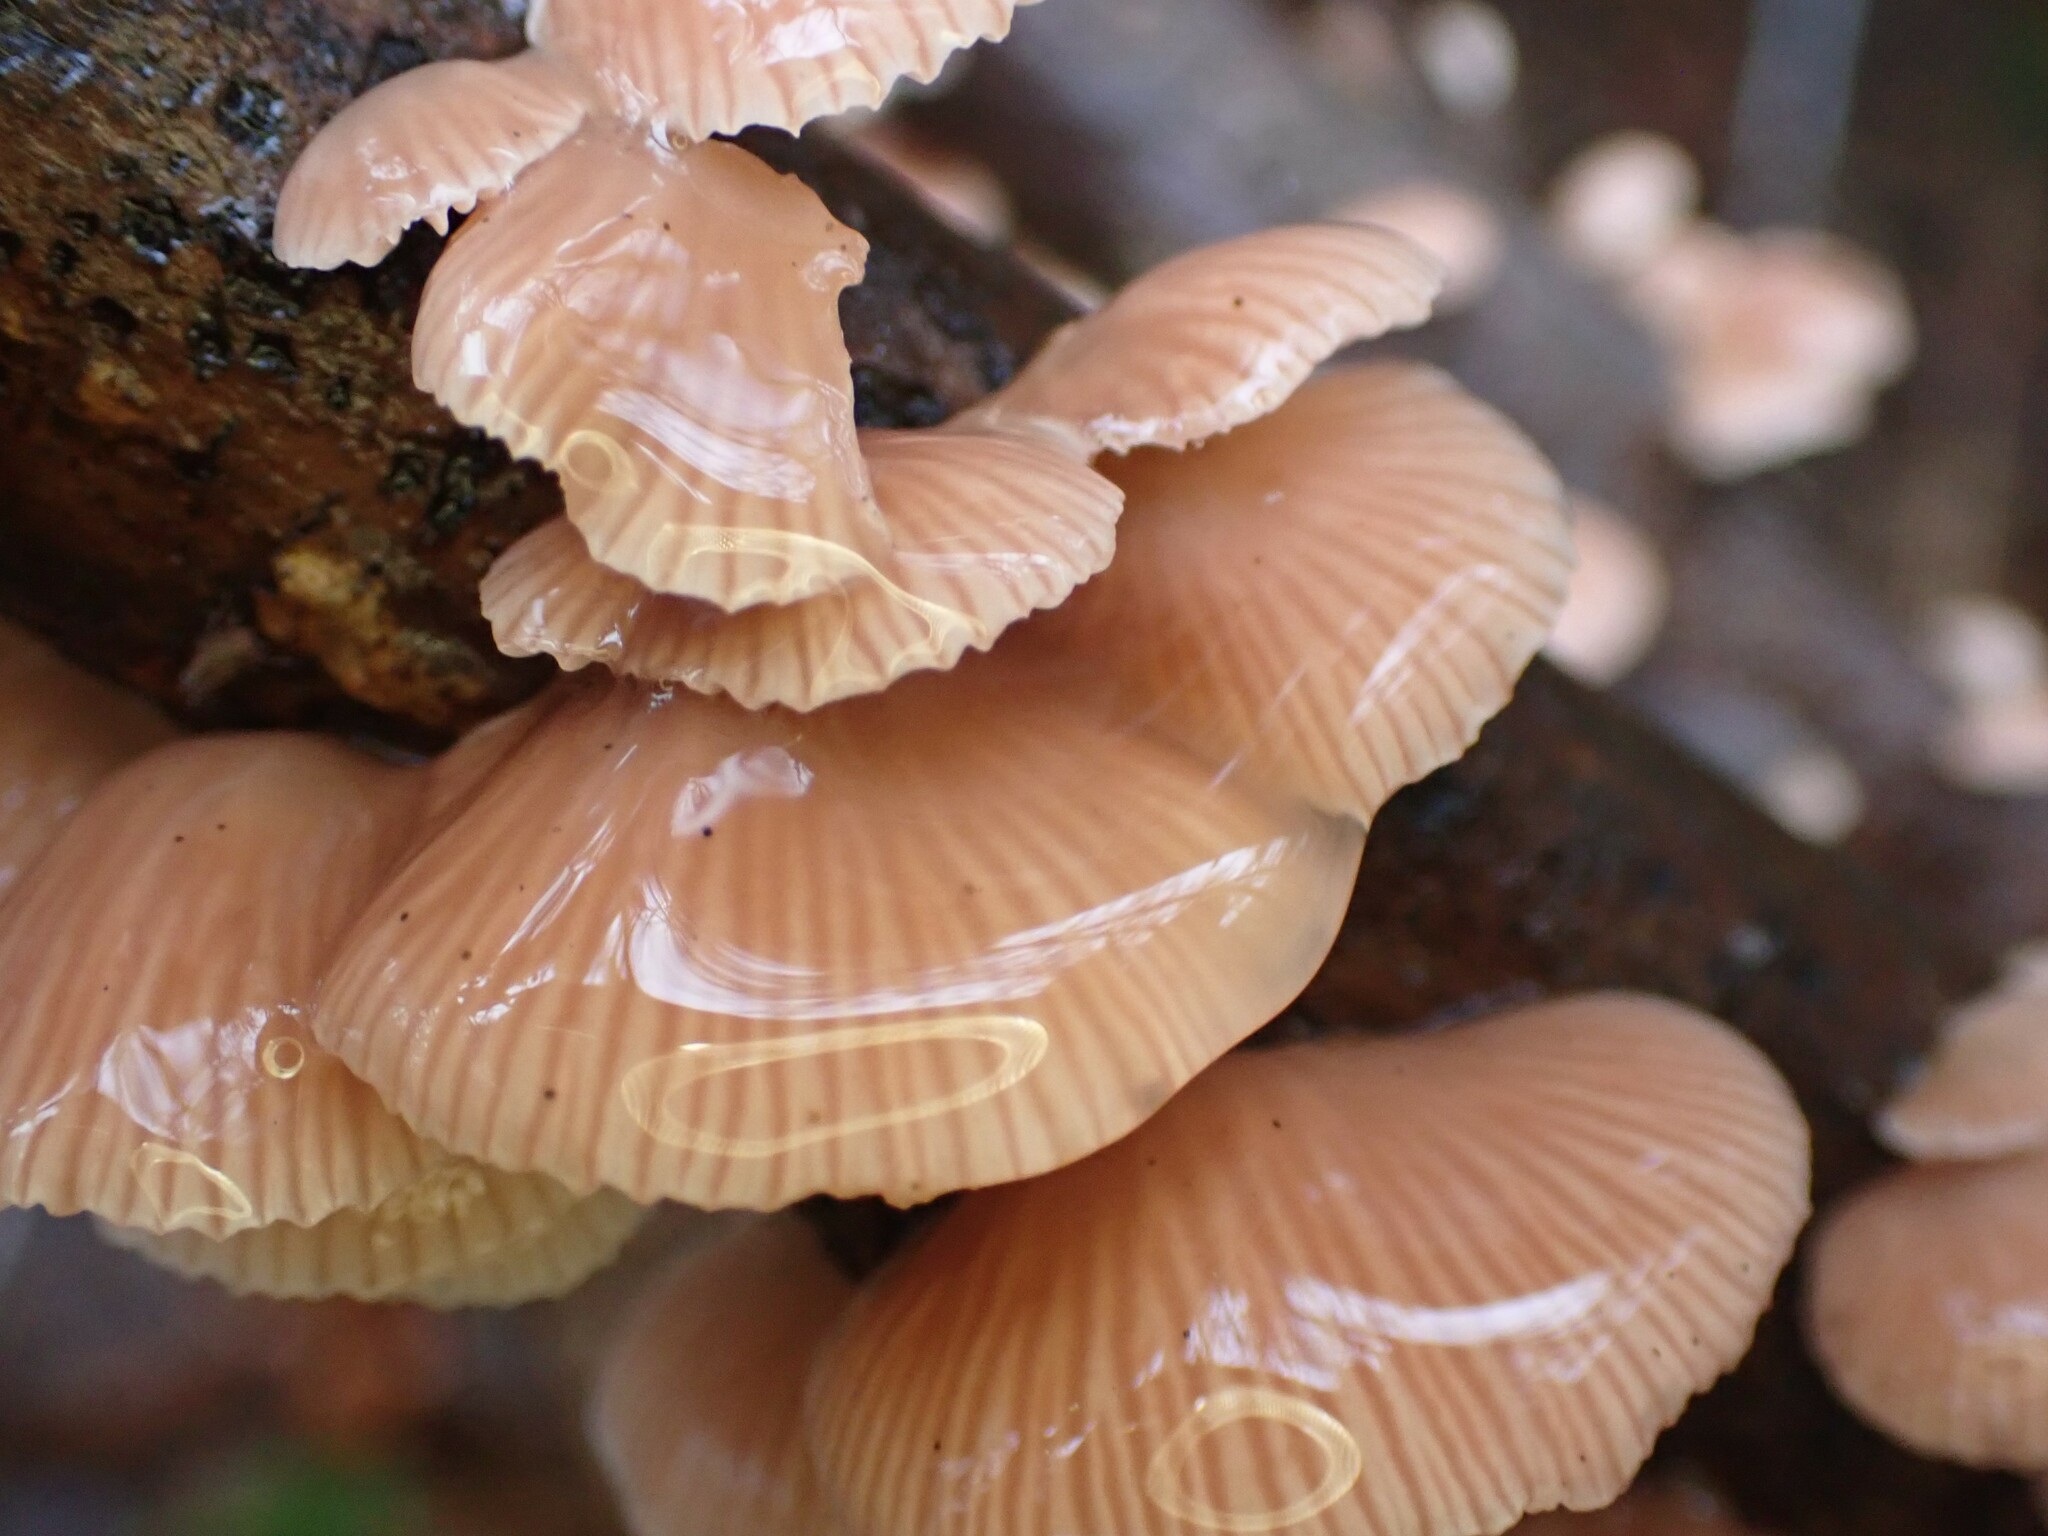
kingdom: Fungi
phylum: Basidiomycota
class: Agaricomycetes
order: Agaricales
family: Mycenaceae
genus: Panellus
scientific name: Panellus longinquus
